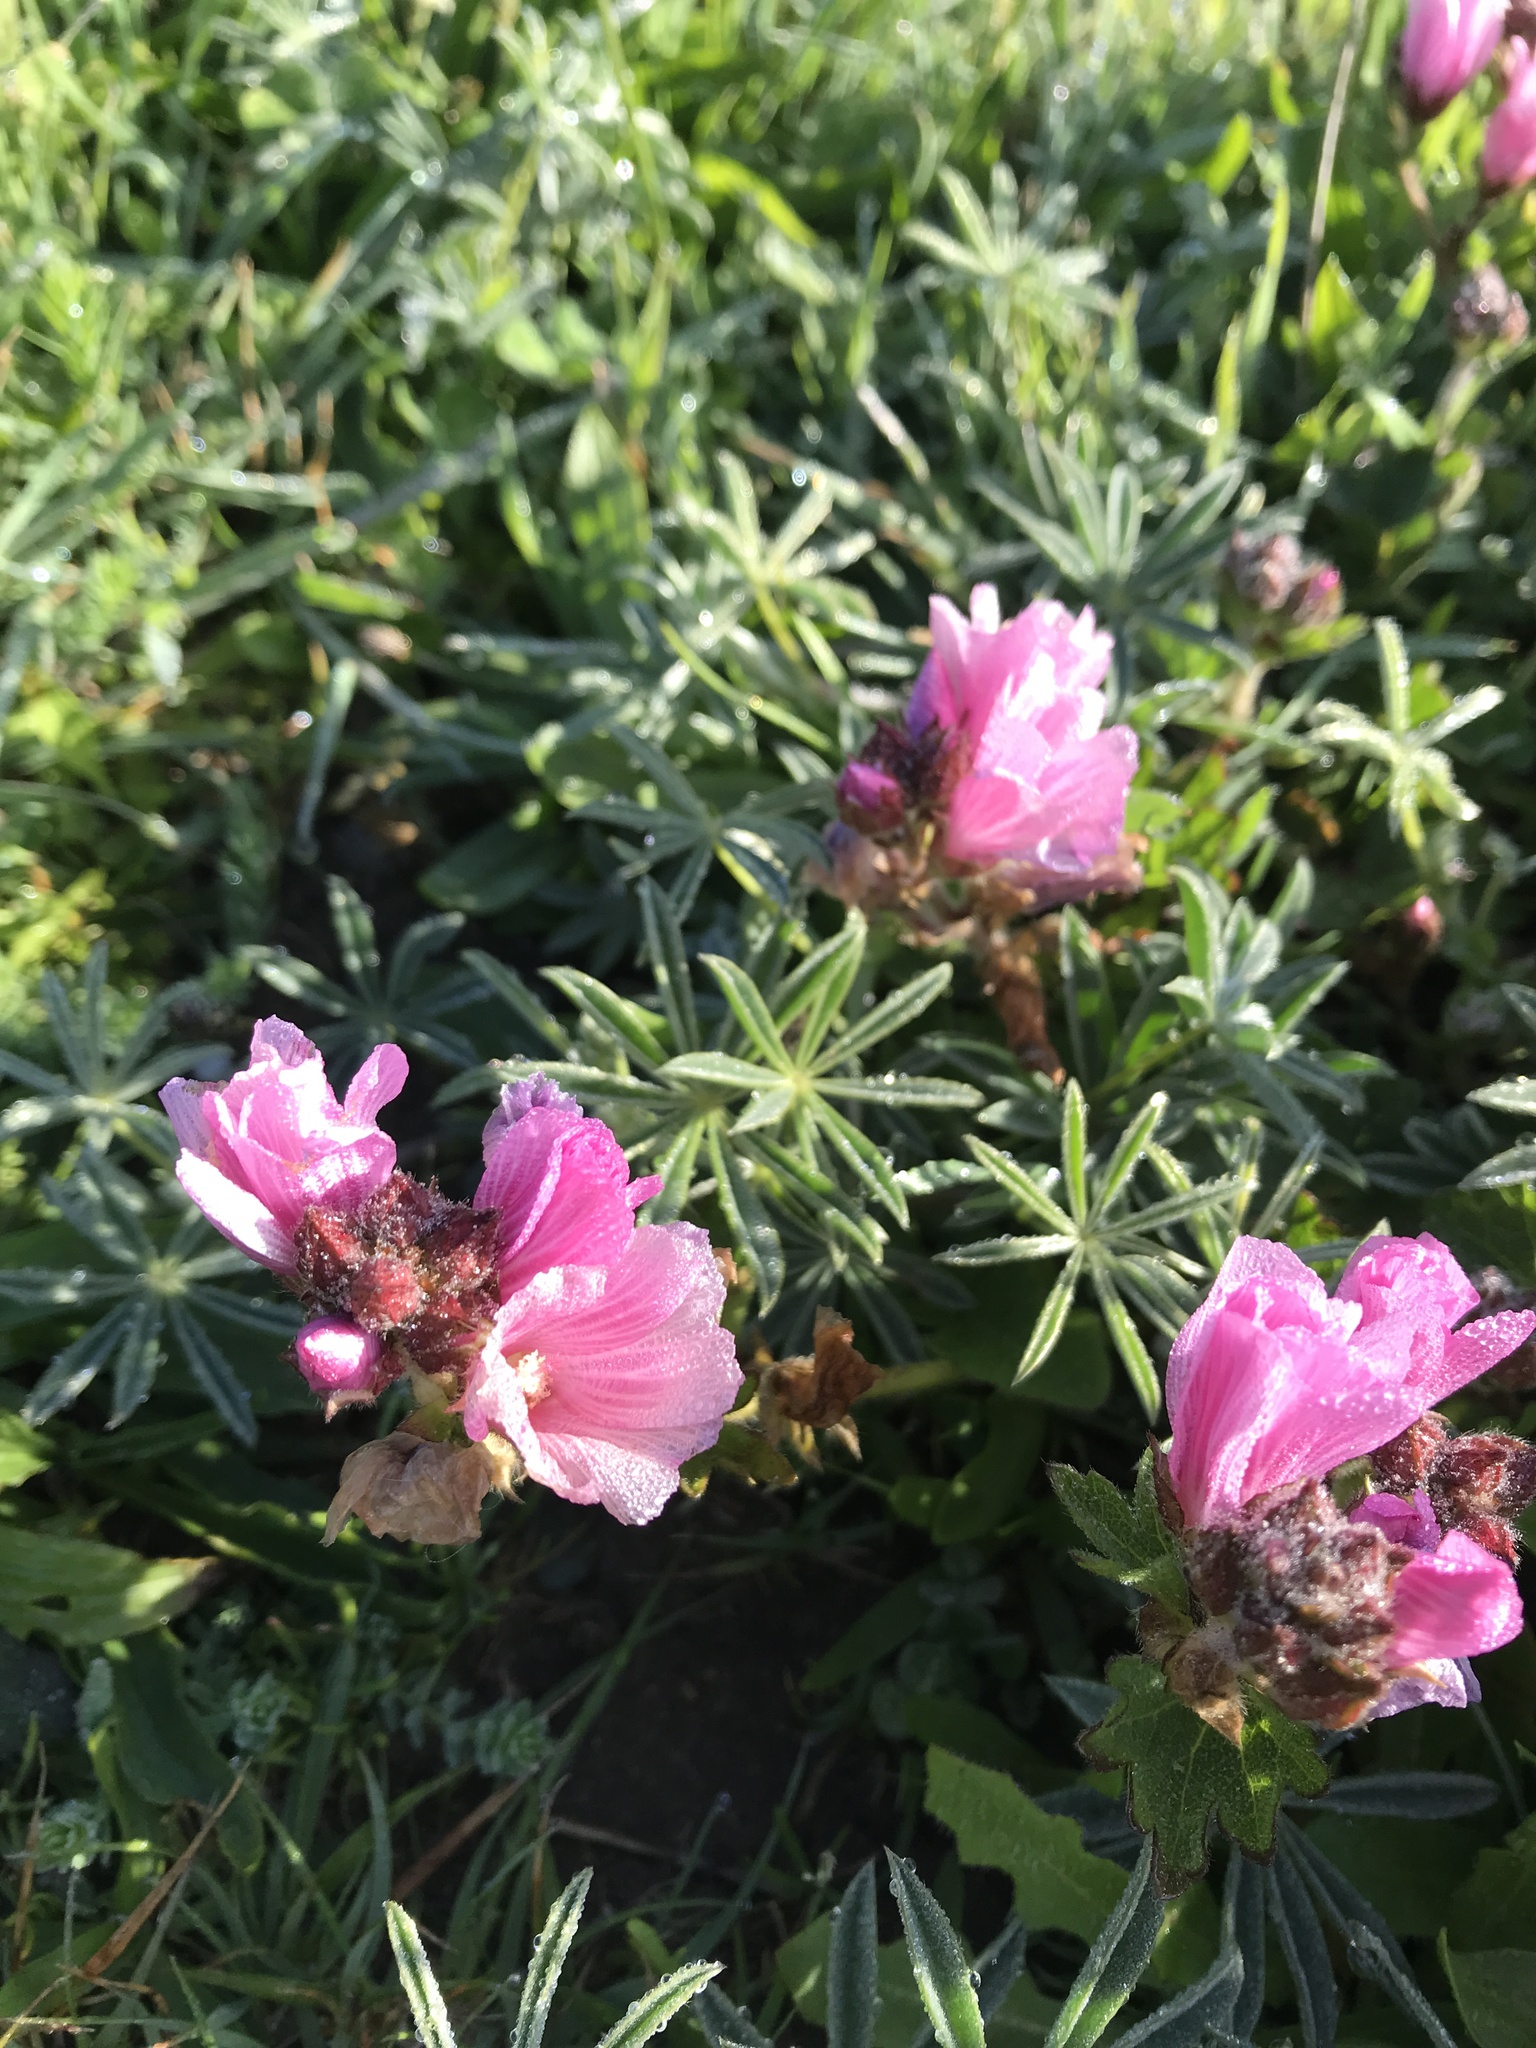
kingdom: Plantae
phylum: Tracheophyta
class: Magnoliopsida
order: Malvales
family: Malvaceae
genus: Sidalcea
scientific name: Sidalcea malviflora
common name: Greek mallow
